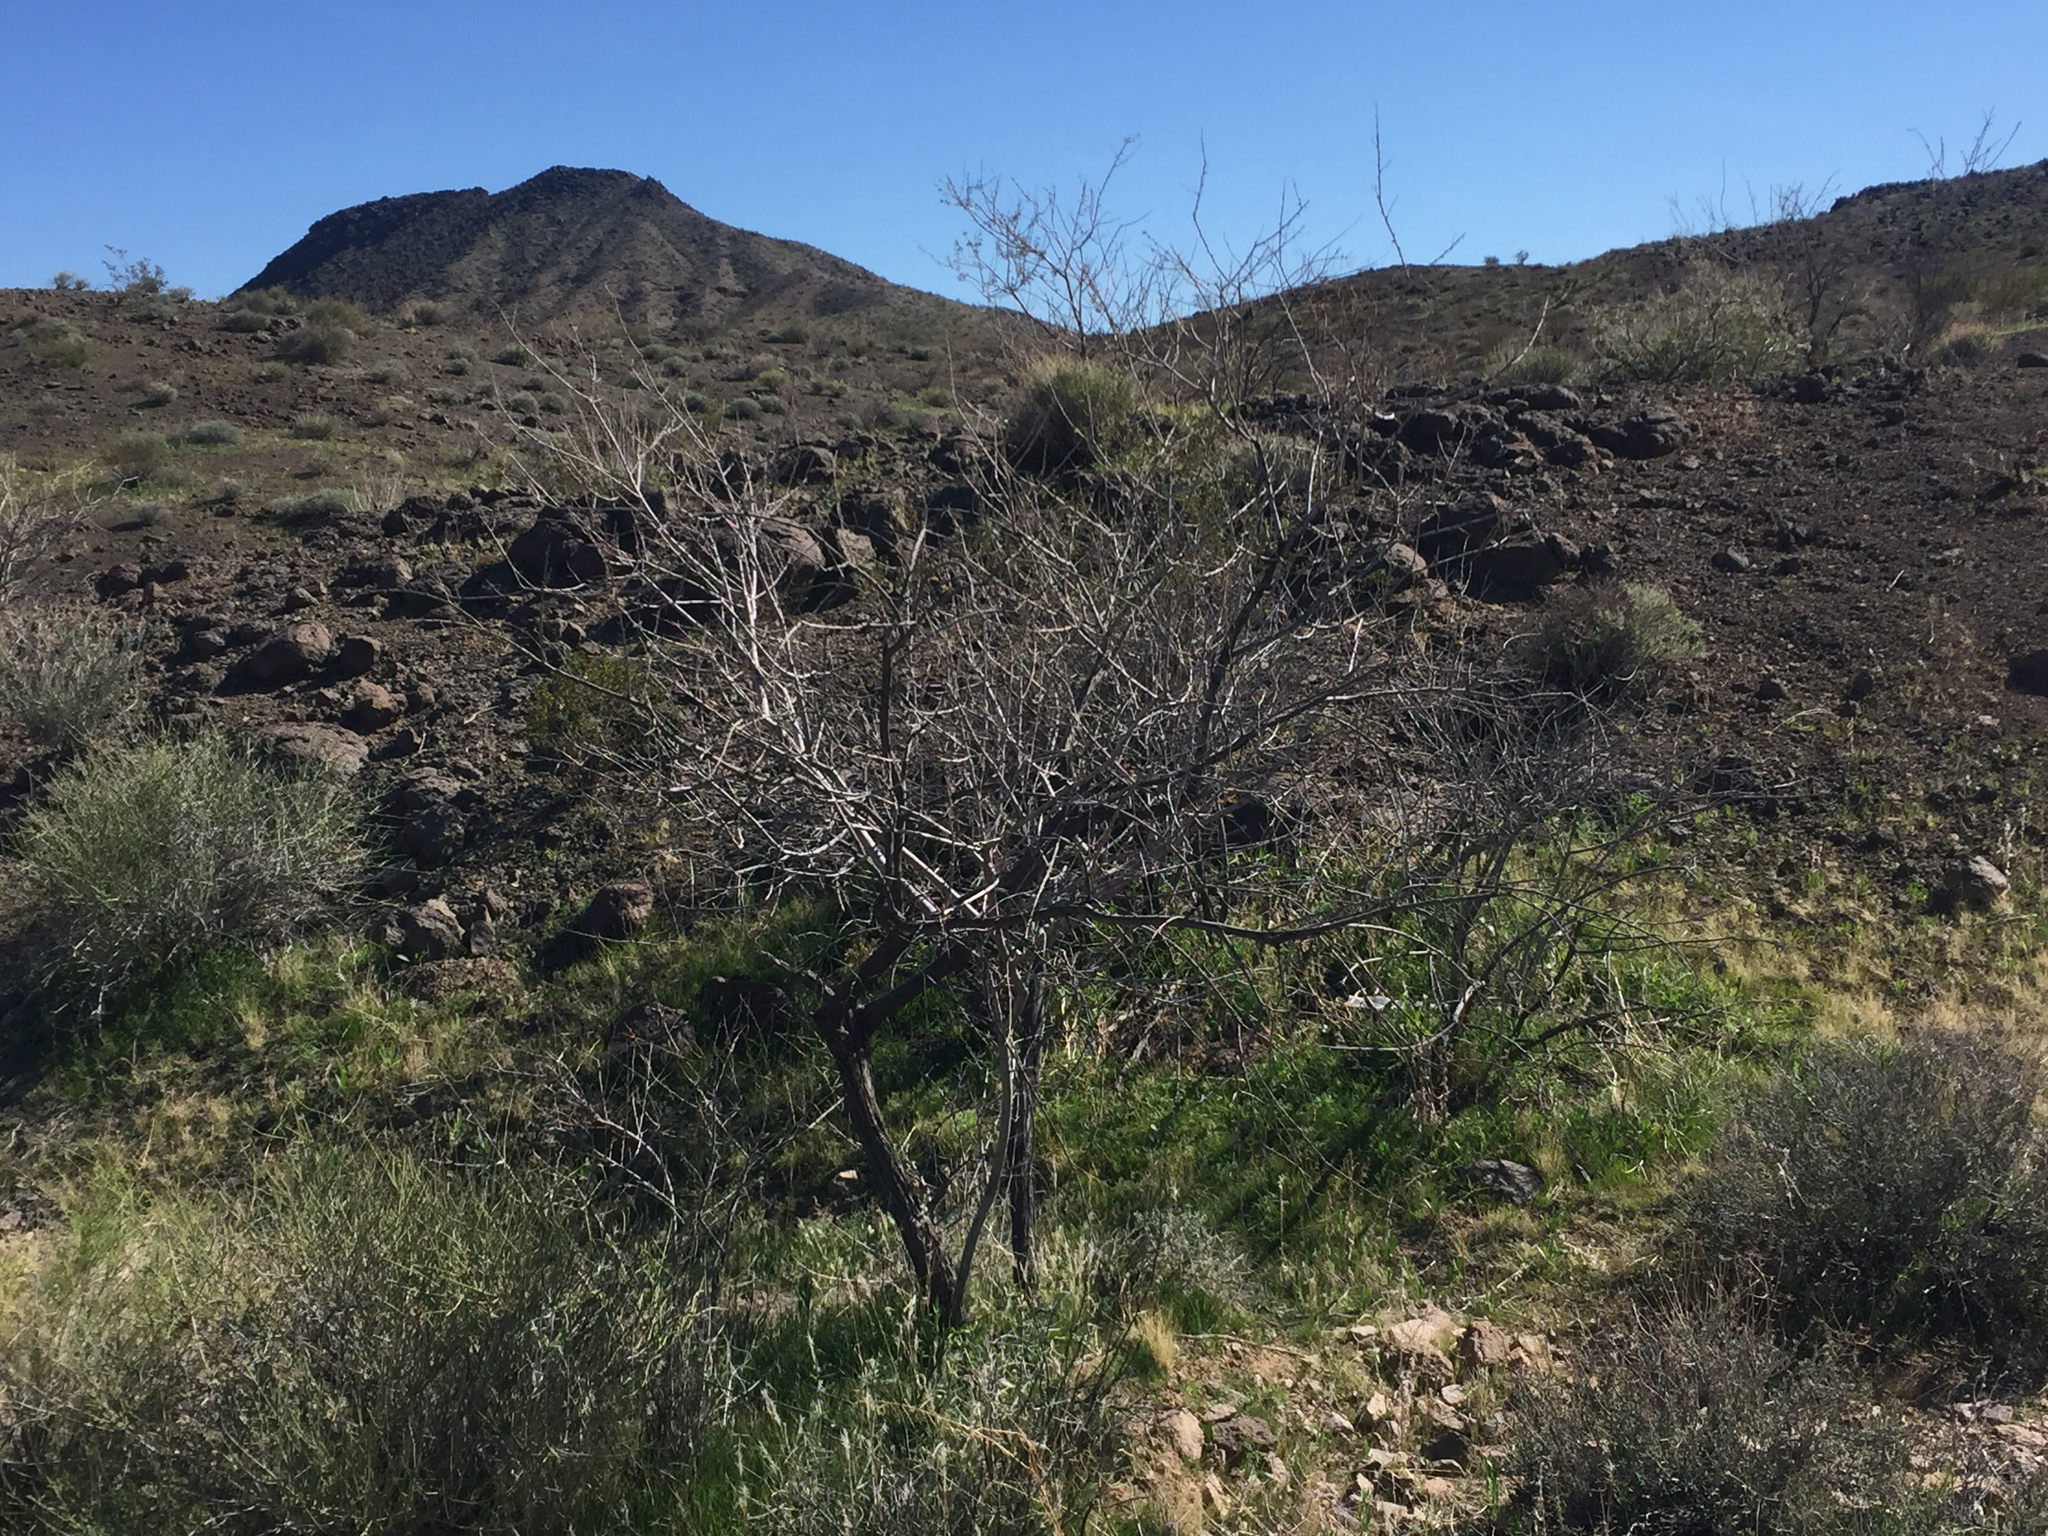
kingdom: Plantae
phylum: Tracheophyta
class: Magnoliopsida
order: Fabales
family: Fabaceae
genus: Senegalia
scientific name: Senegalia greggii
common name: Texas-mimosa
